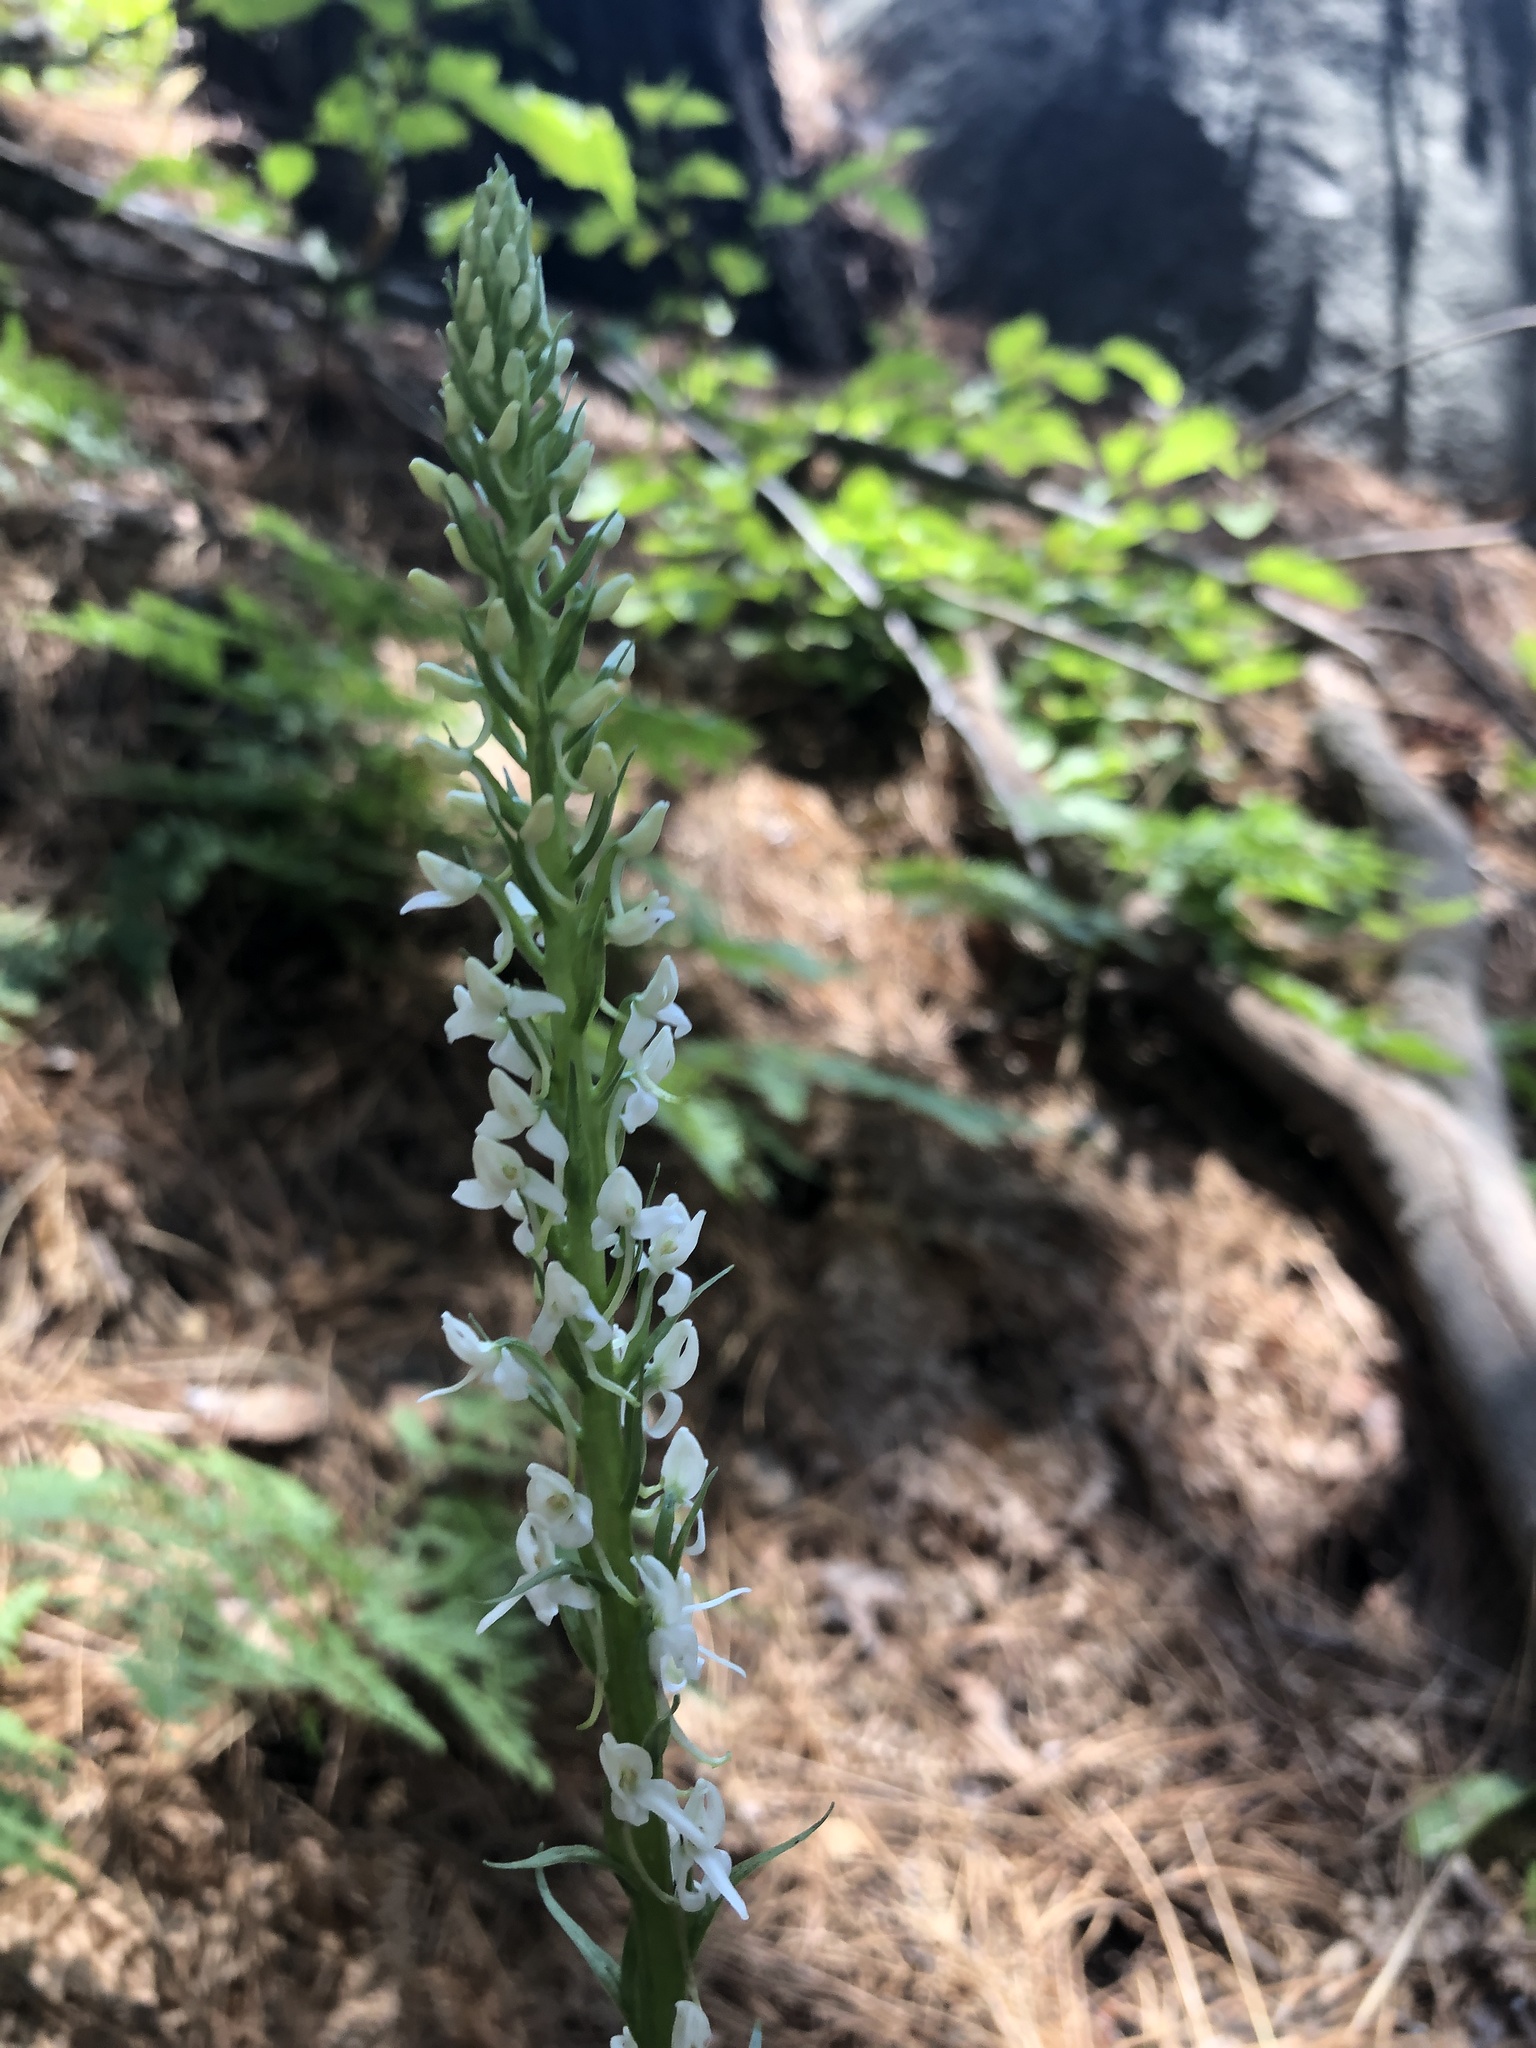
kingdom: Plantae
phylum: Tracheophyta
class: Liliopsida
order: Asparagales
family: Orchidaceae
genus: Platanthera
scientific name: Platanthera dilatata
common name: Bog candles
